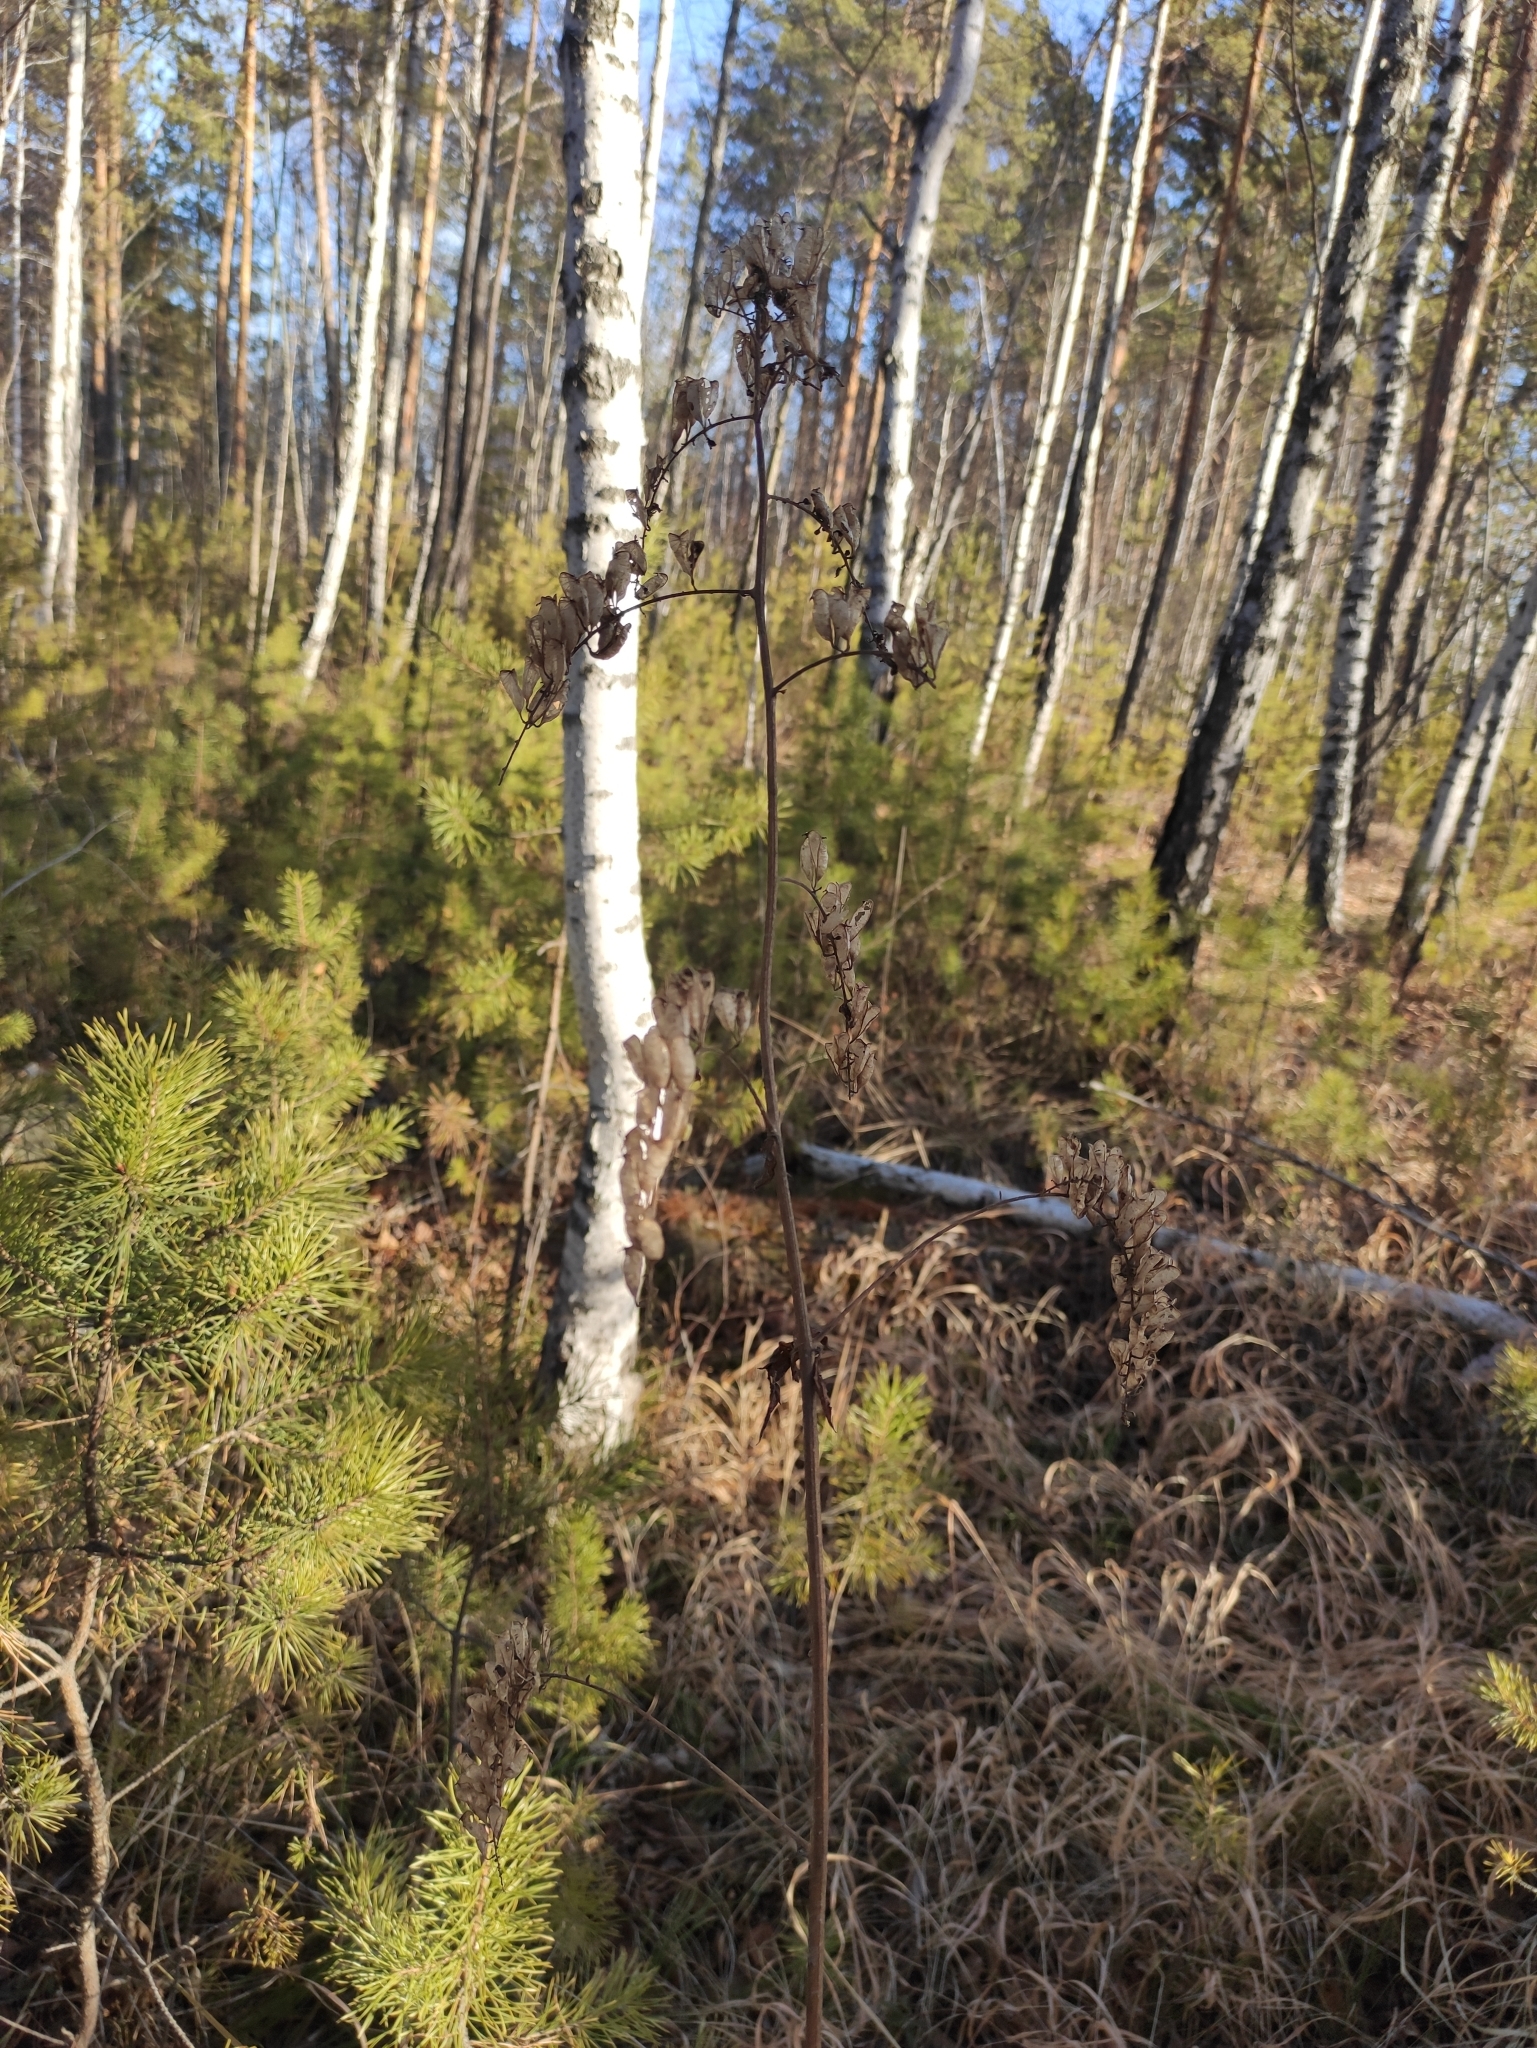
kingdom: Plantae
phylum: Tracheophyta
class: Magnoliopsida
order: Ranunculales
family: Ranunculaceae
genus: Actaea
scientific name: Actaea cimicifuga
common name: Chinese cimicifuga
